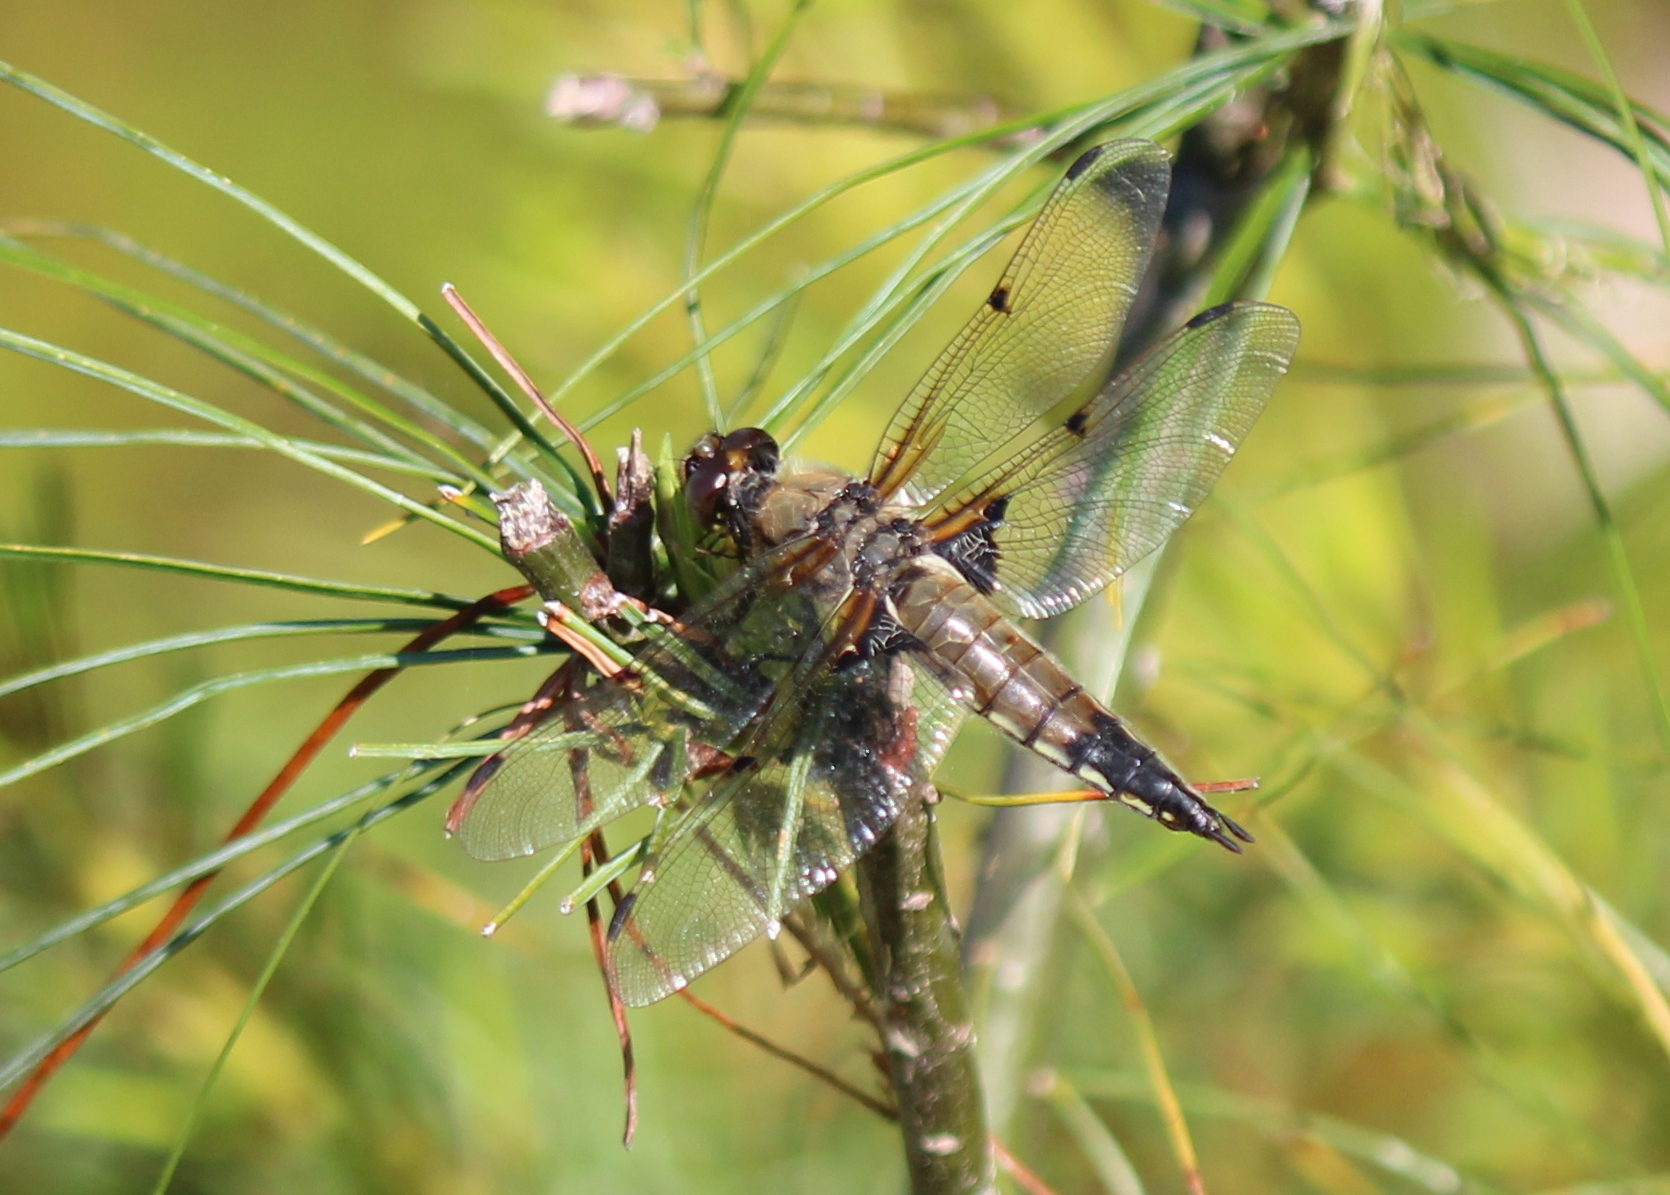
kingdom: Animalia
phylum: Arthropoda
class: Insecta
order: Odonata
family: Libellulidae
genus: Libellula
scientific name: Libellula quadrimaculata
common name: Four-spotted chaser
